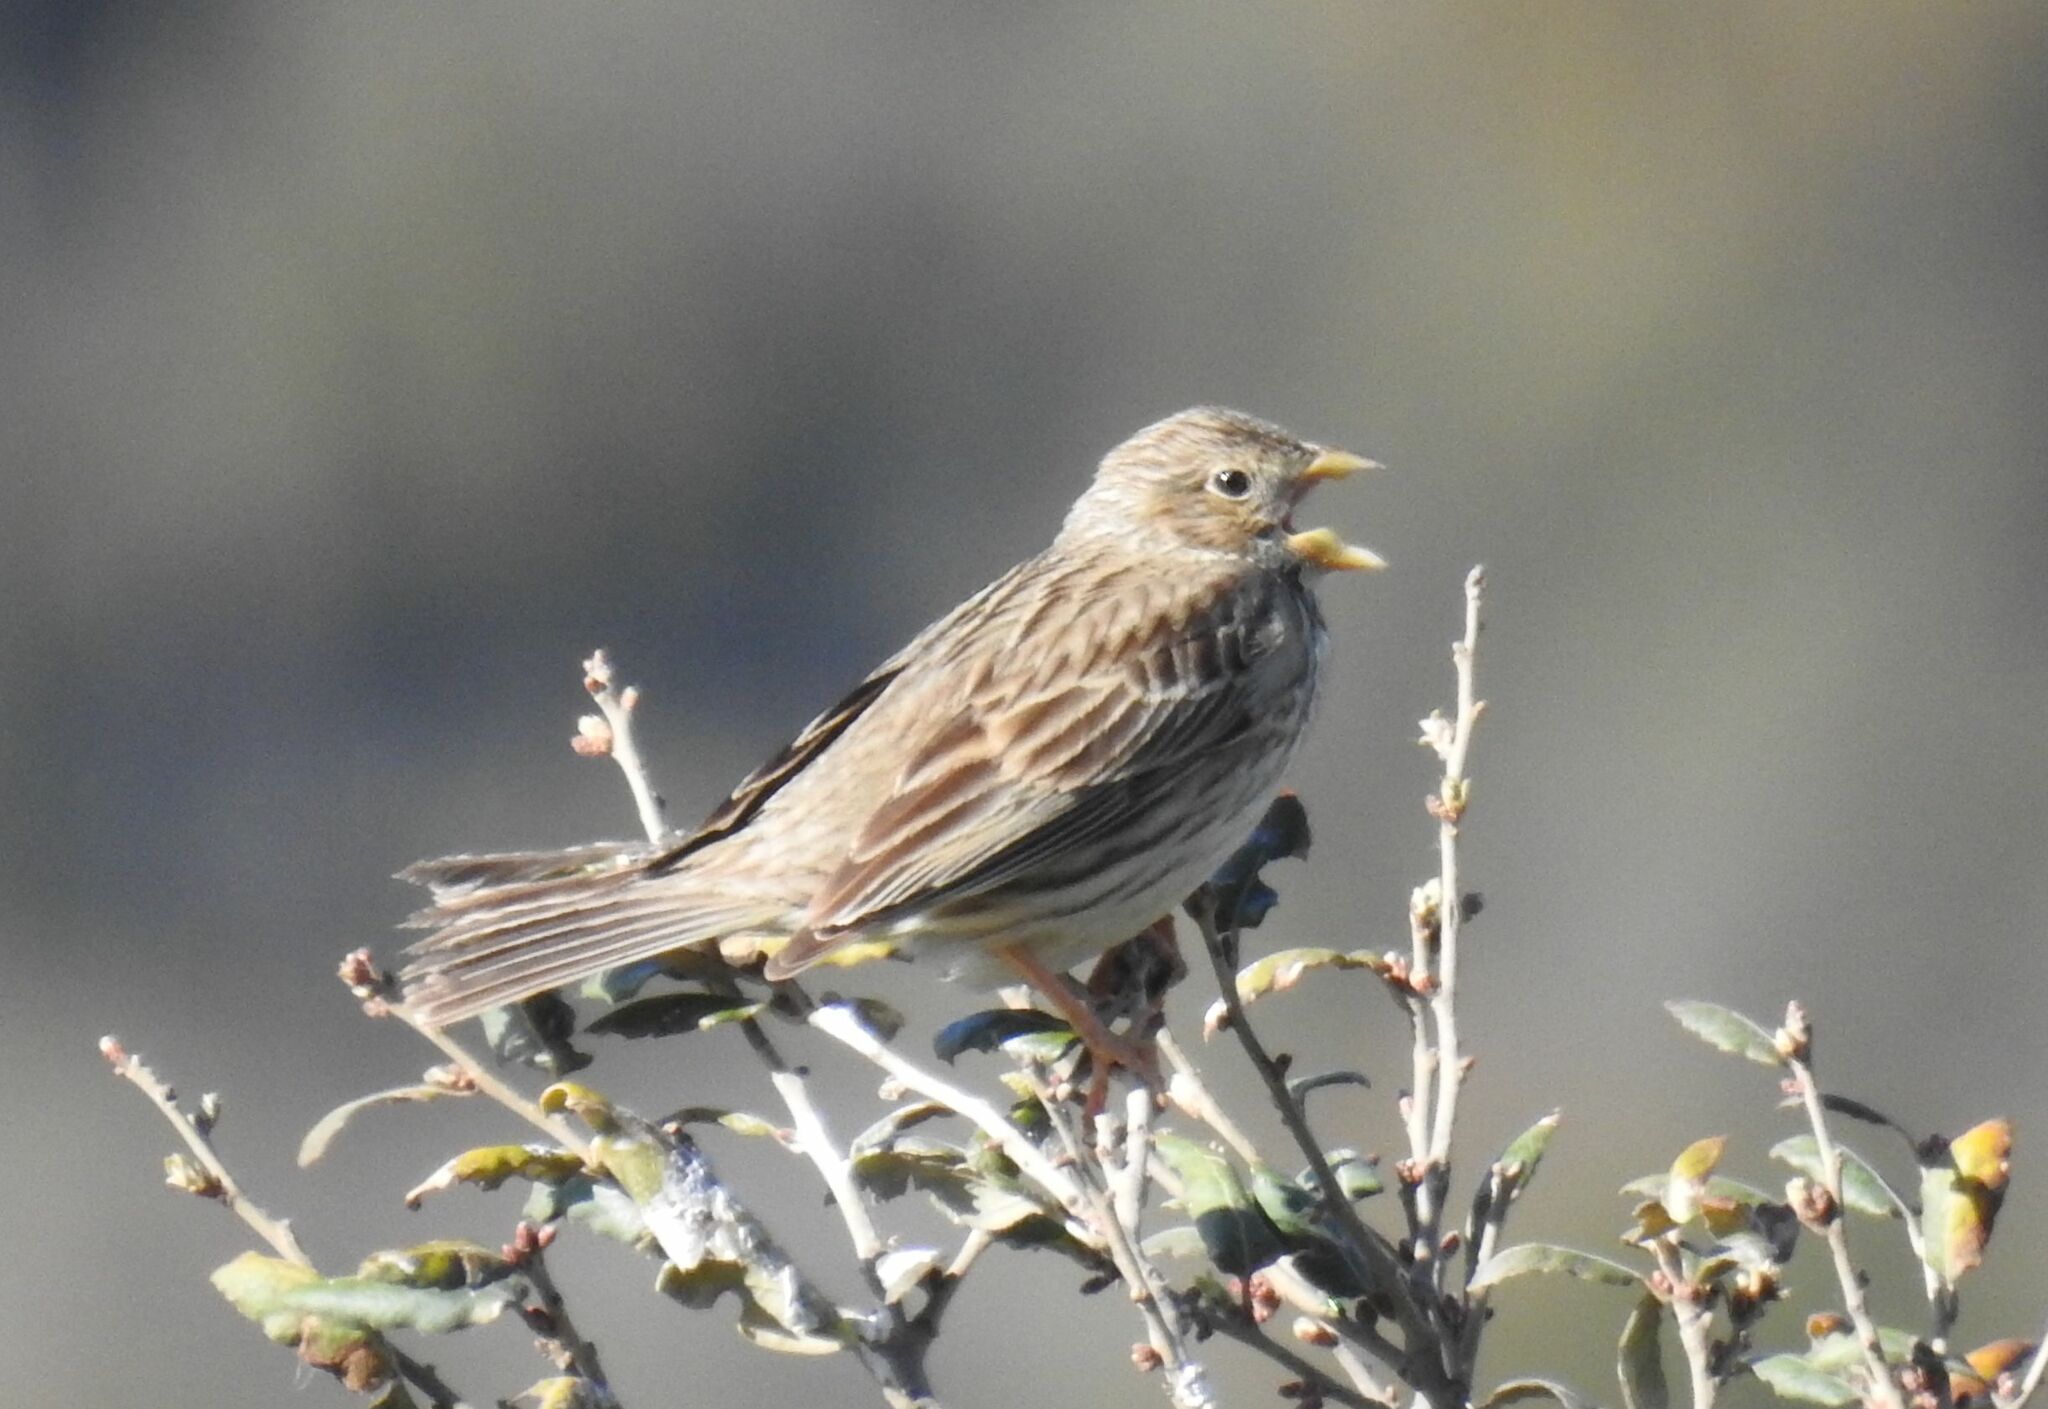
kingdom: Animalia
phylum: Chordata
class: Aves
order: Passeriformes
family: Emberizidae
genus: Emberiza
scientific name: Emberiza calandra
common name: Corn bunting
